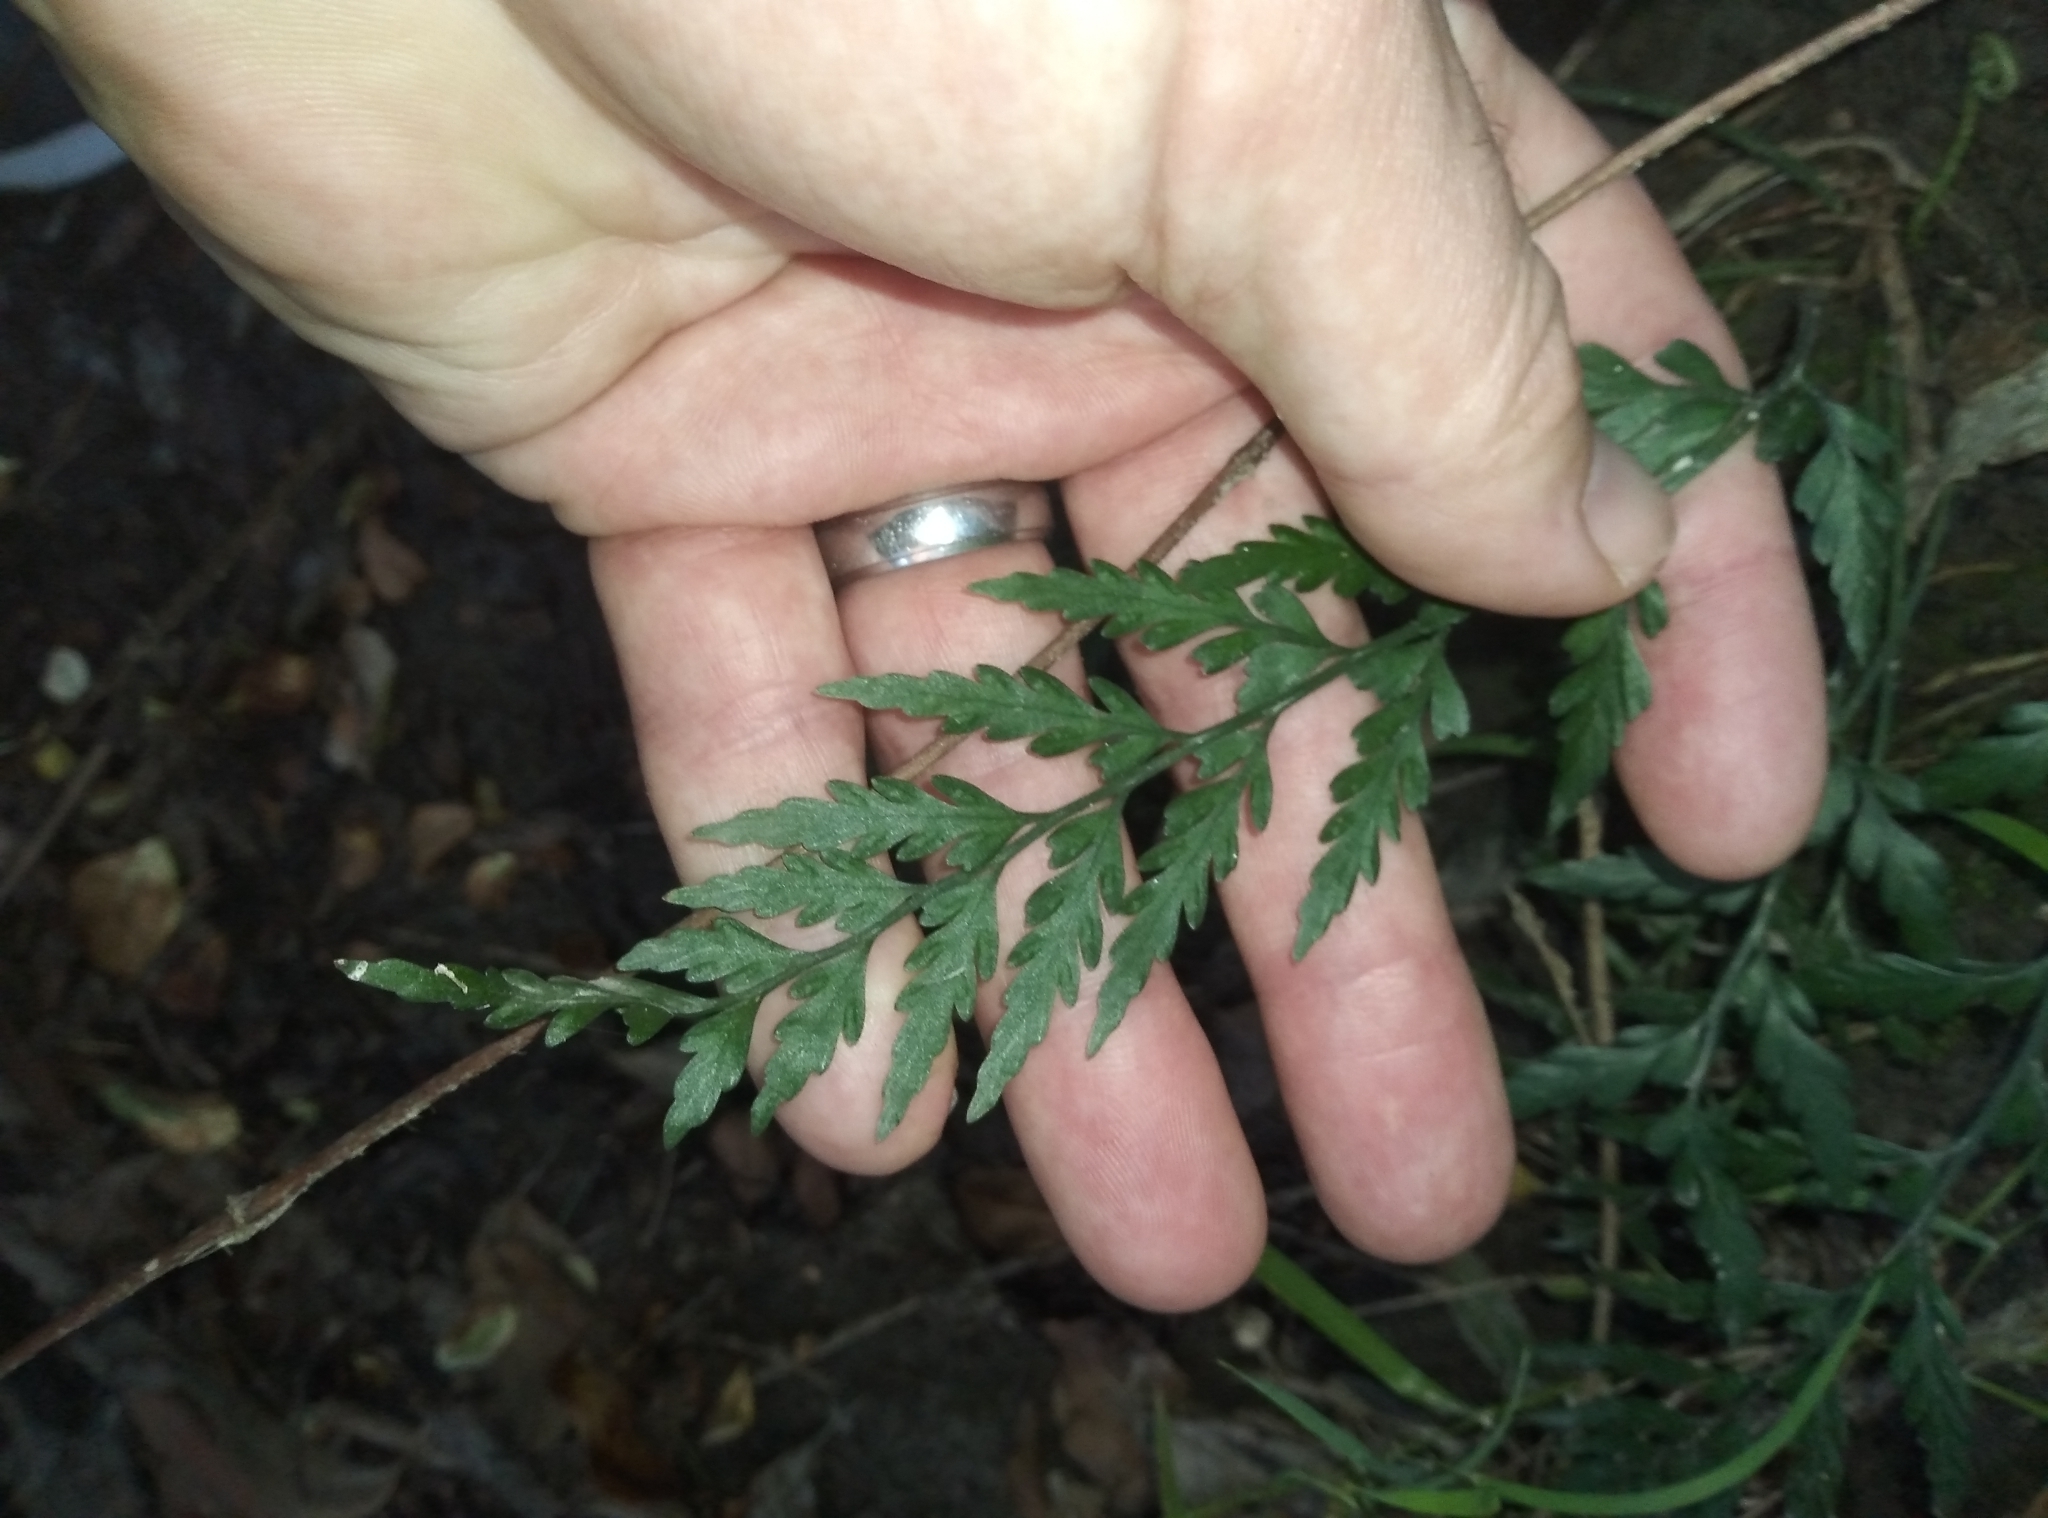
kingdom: Plantae
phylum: Tracheophyta
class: Polypodiopsida
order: Polypodiales
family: Aspleniaceae
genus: Asplenium
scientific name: Asplenium appendiculatum
